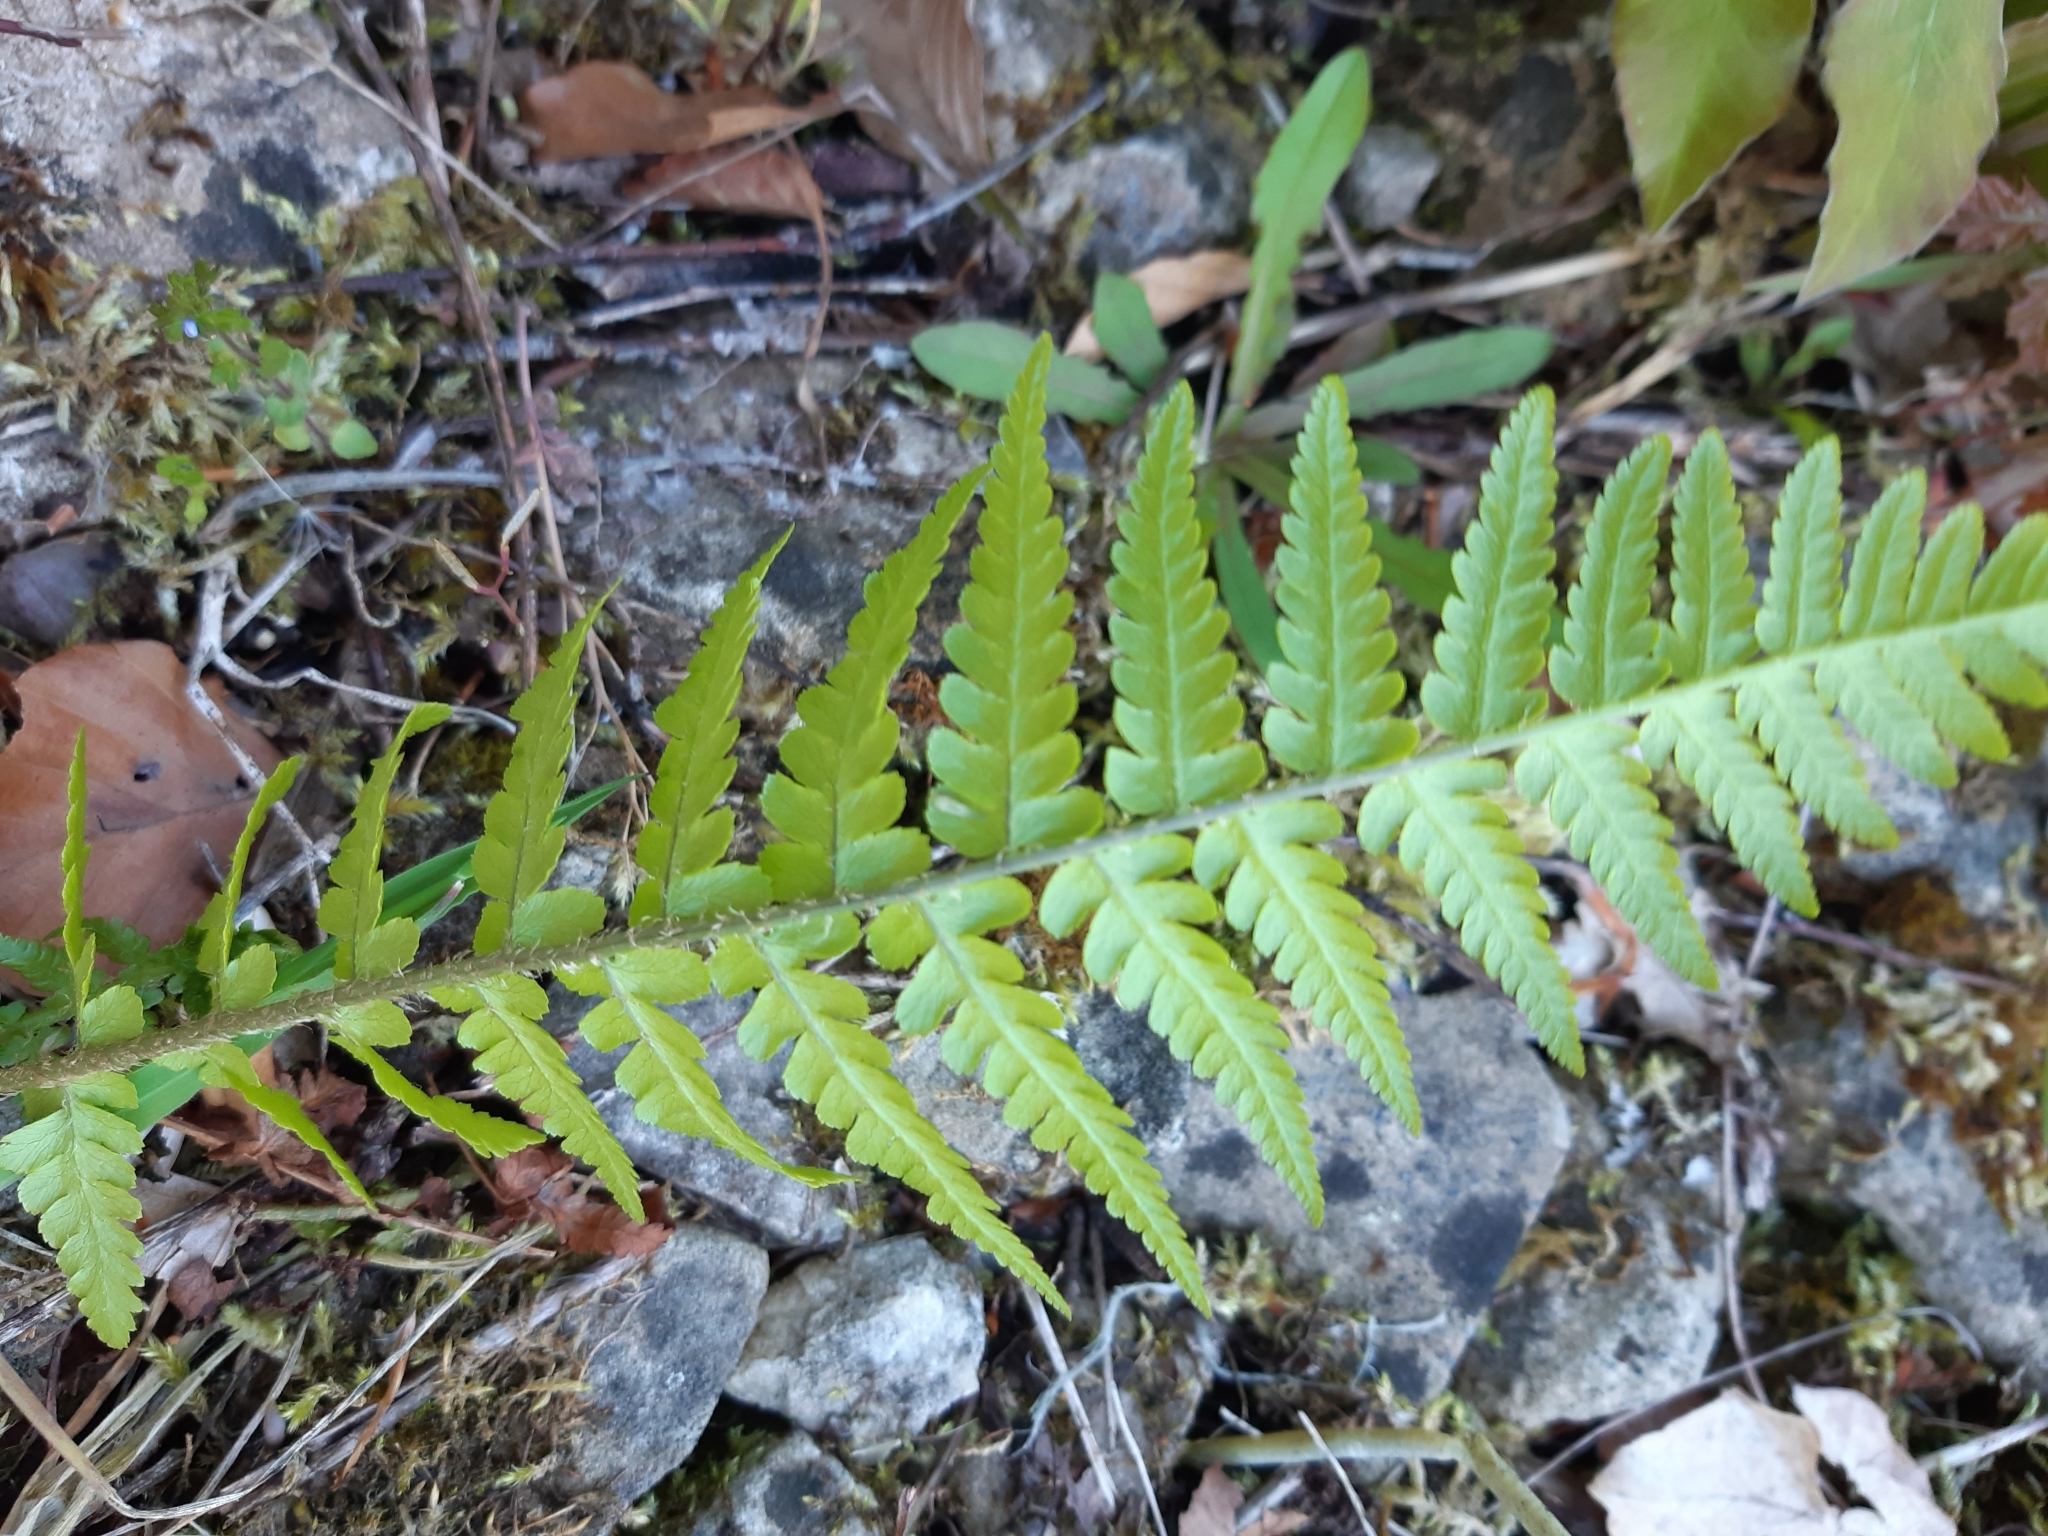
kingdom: Plantae
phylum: Tracheophyta
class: Polypodiopsida
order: Polypodiales
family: Dryopteridaceae
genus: Dryopteris
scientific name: Dryopteris filix-mas
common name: Male fern
